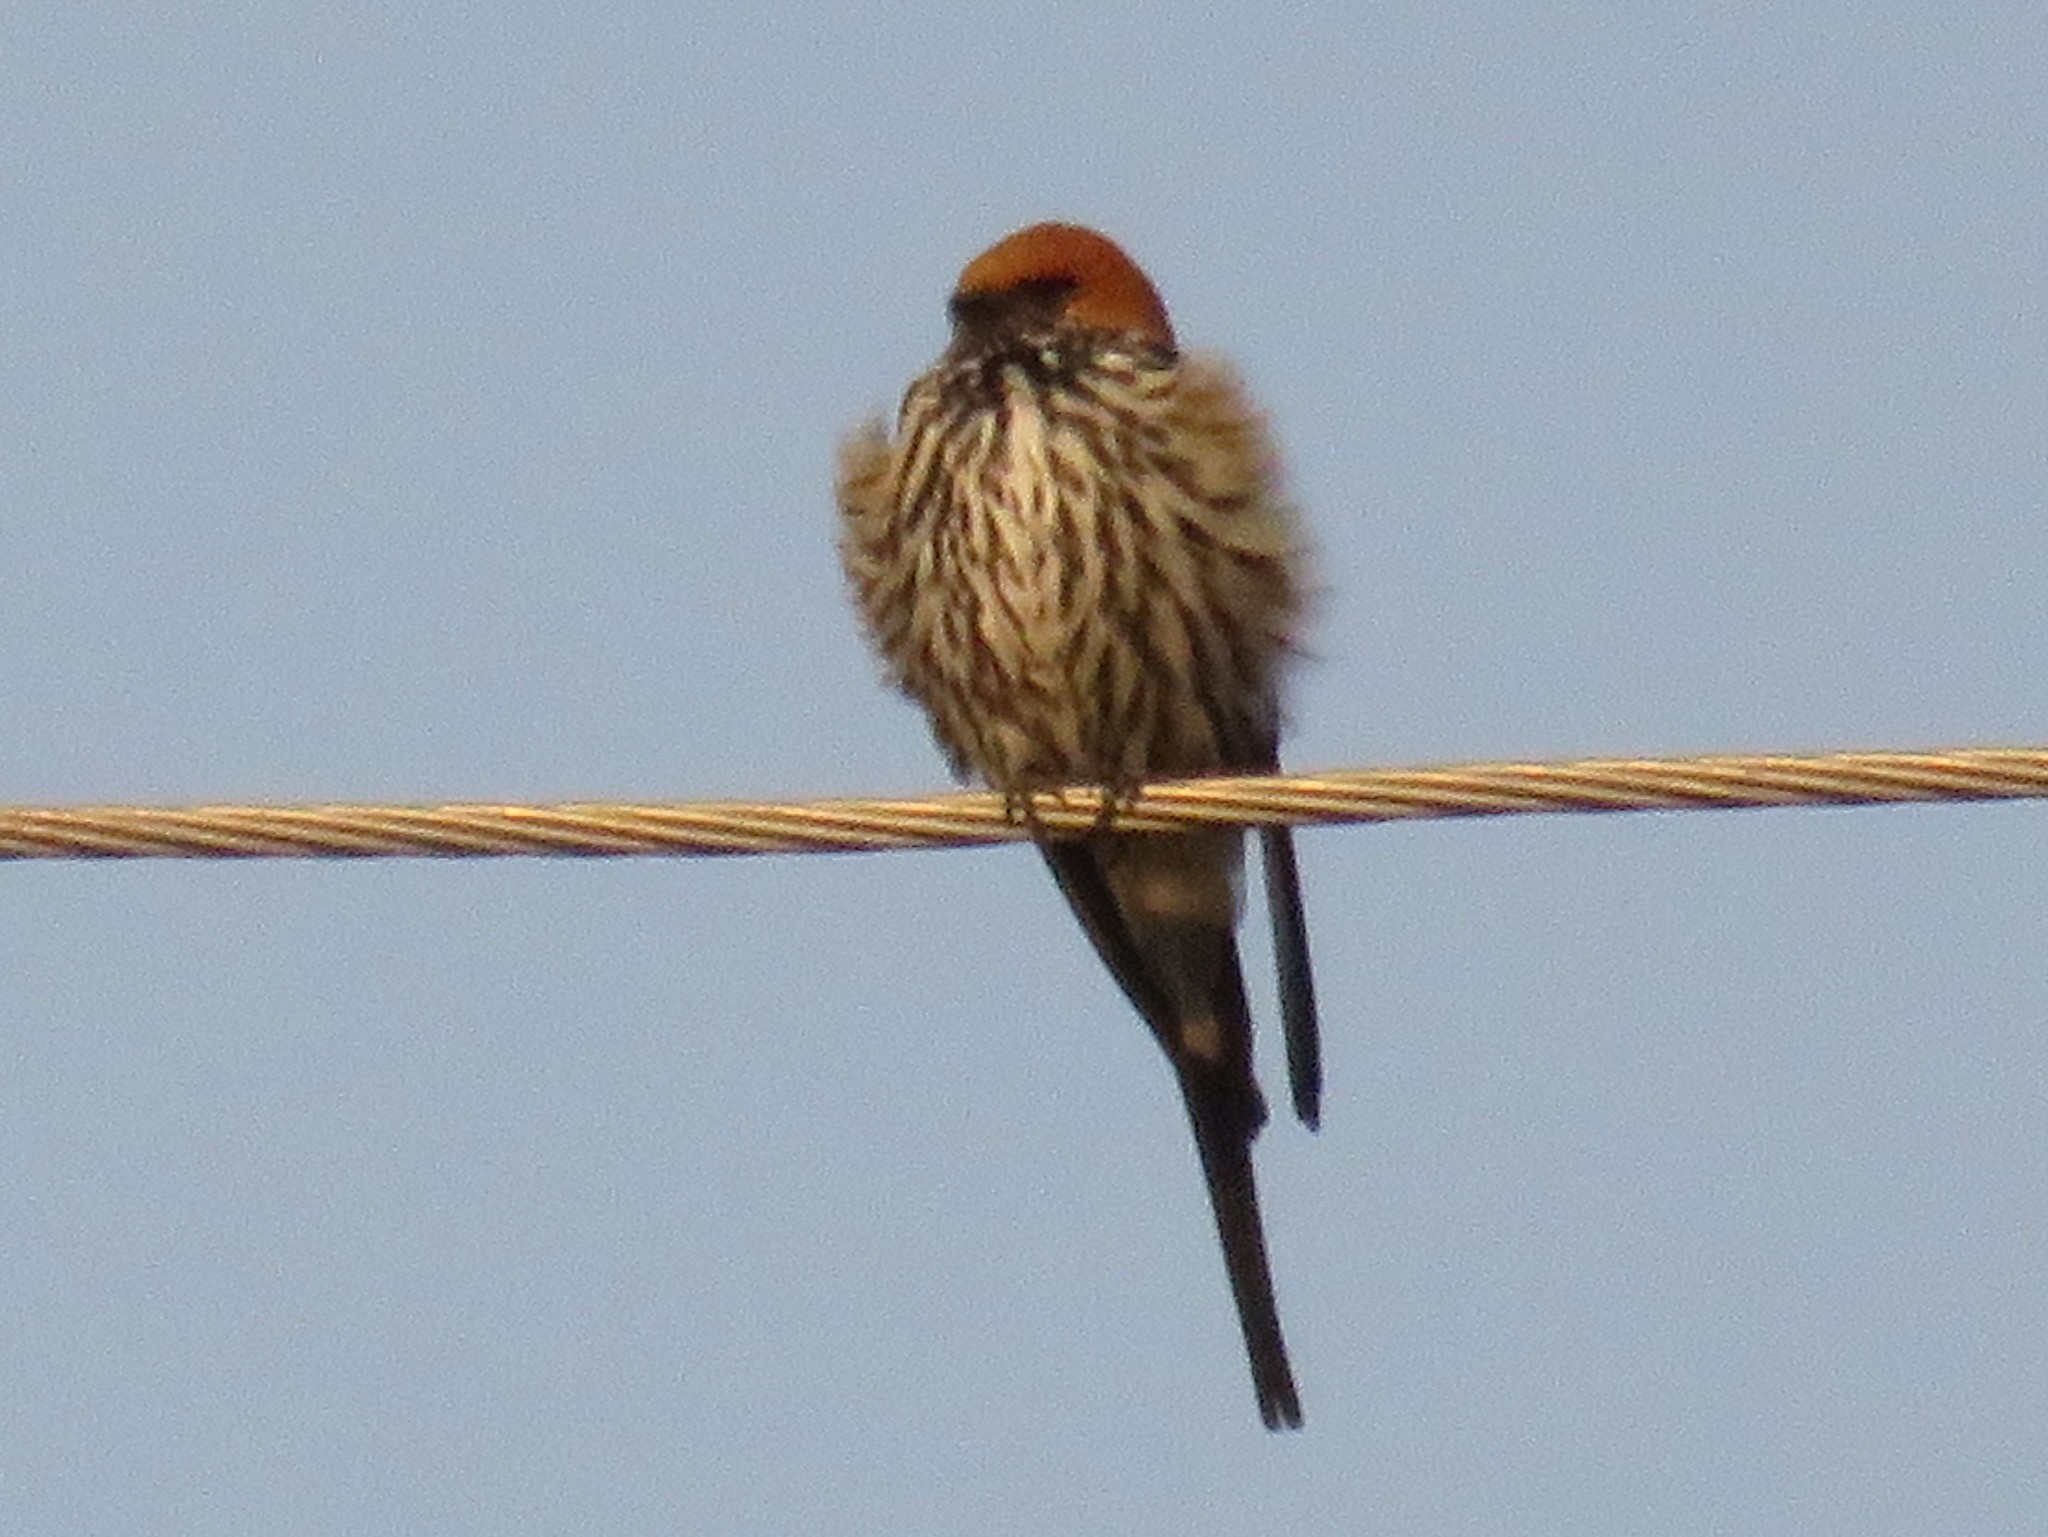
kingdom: Animalia
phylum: Chordata
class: Aves
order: Passeriformes
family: Hirundinidae
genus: Cecropis
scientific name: Cecropis abyssinica
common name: Lesser striped-swallow
